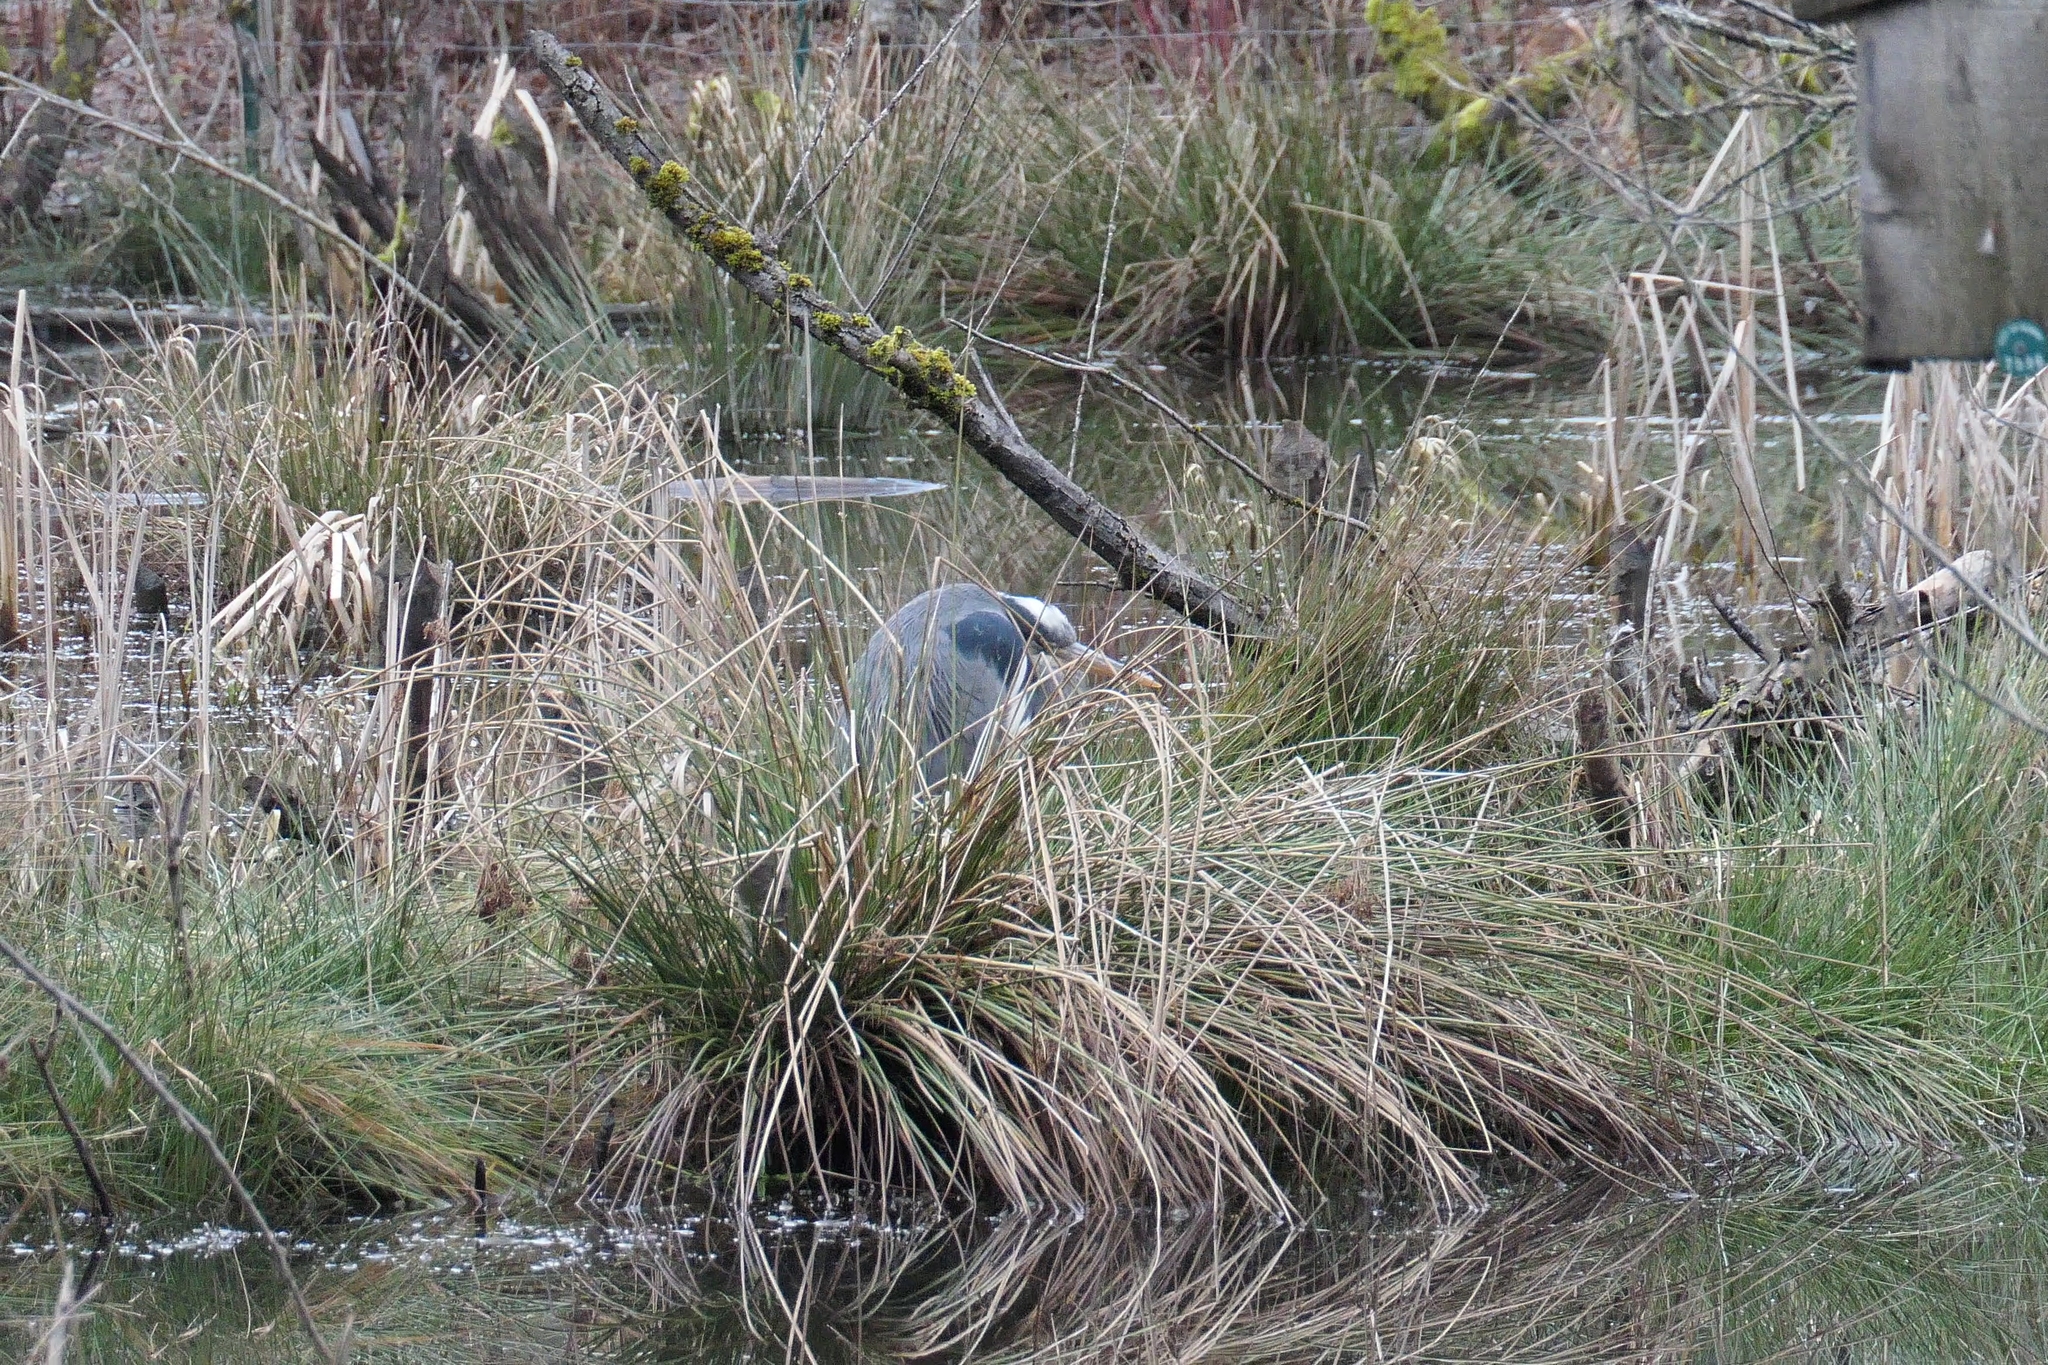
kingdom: Animalia
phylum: Chordata
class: Aves
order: Pelecaniformes
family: Ardeidae
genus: Ardea
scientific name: Ardea herodias
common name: Great blue heron
